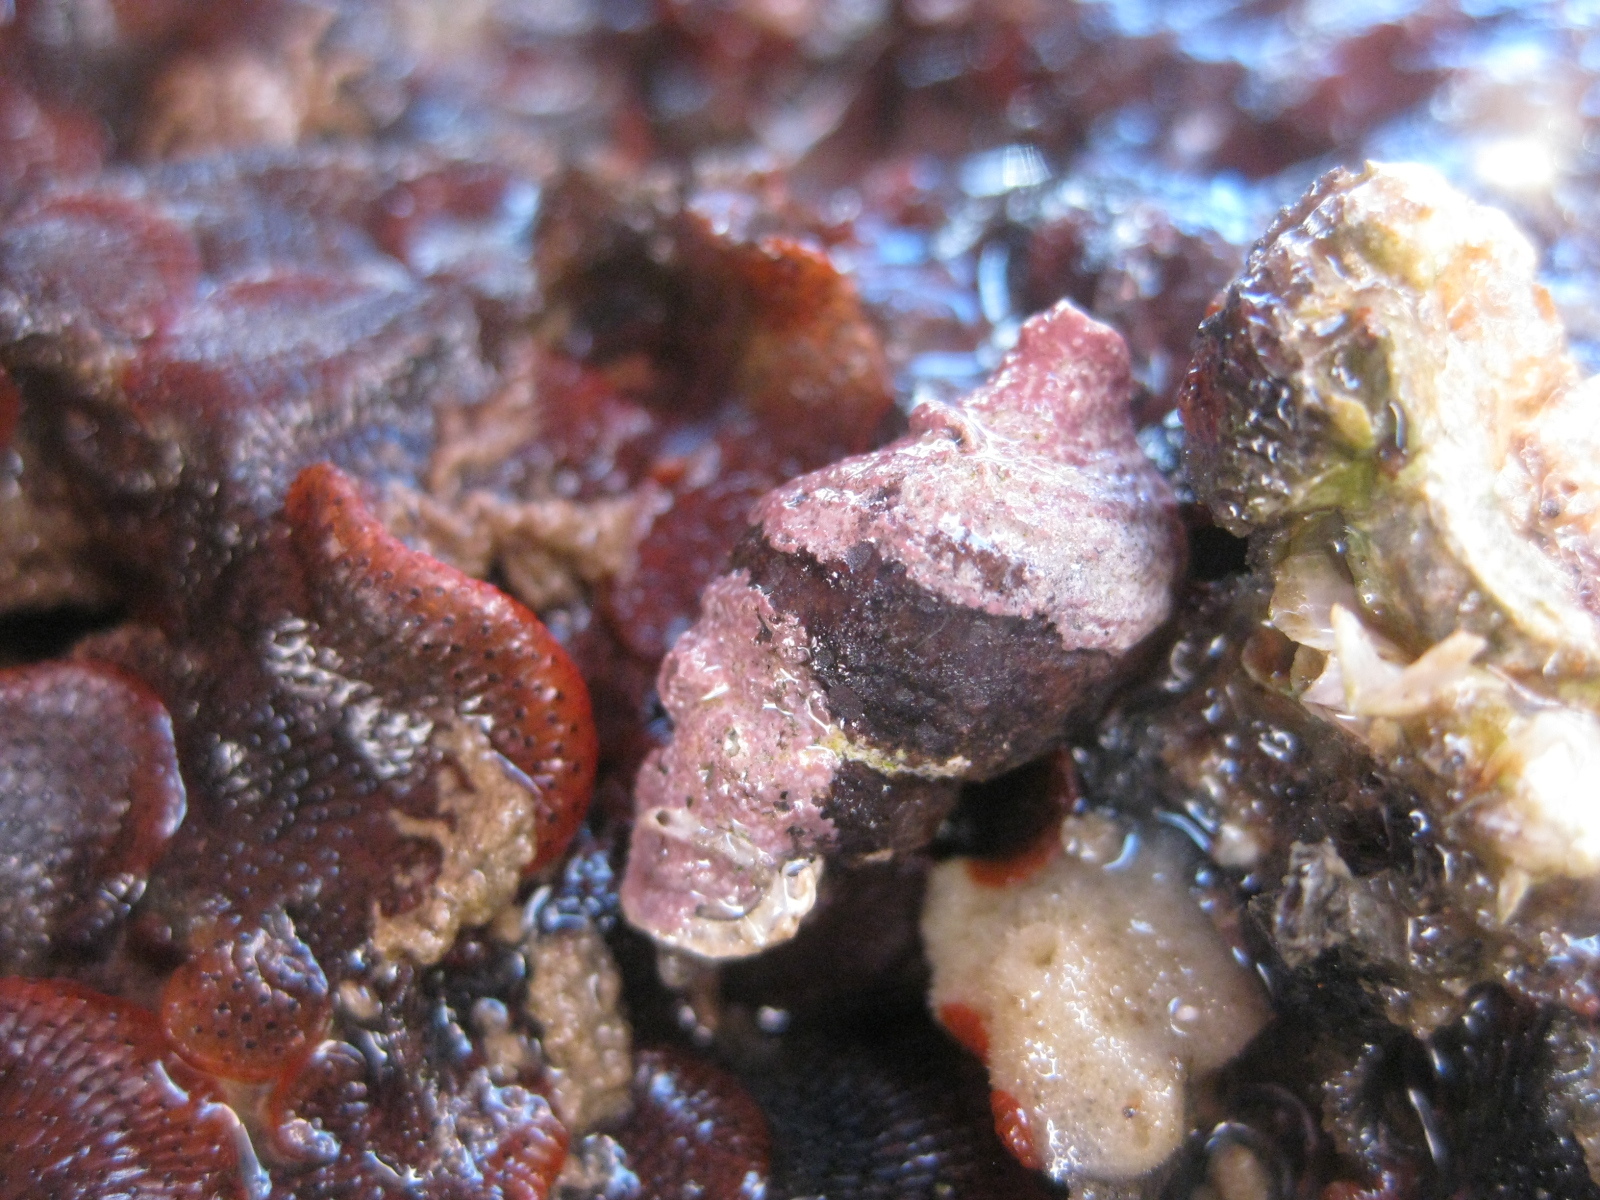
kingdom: Animalia
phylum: Mollusca
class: Gastropoda
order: Neogastropoda
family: Fasciolariidae
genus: Taron
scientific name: Taron dubius
